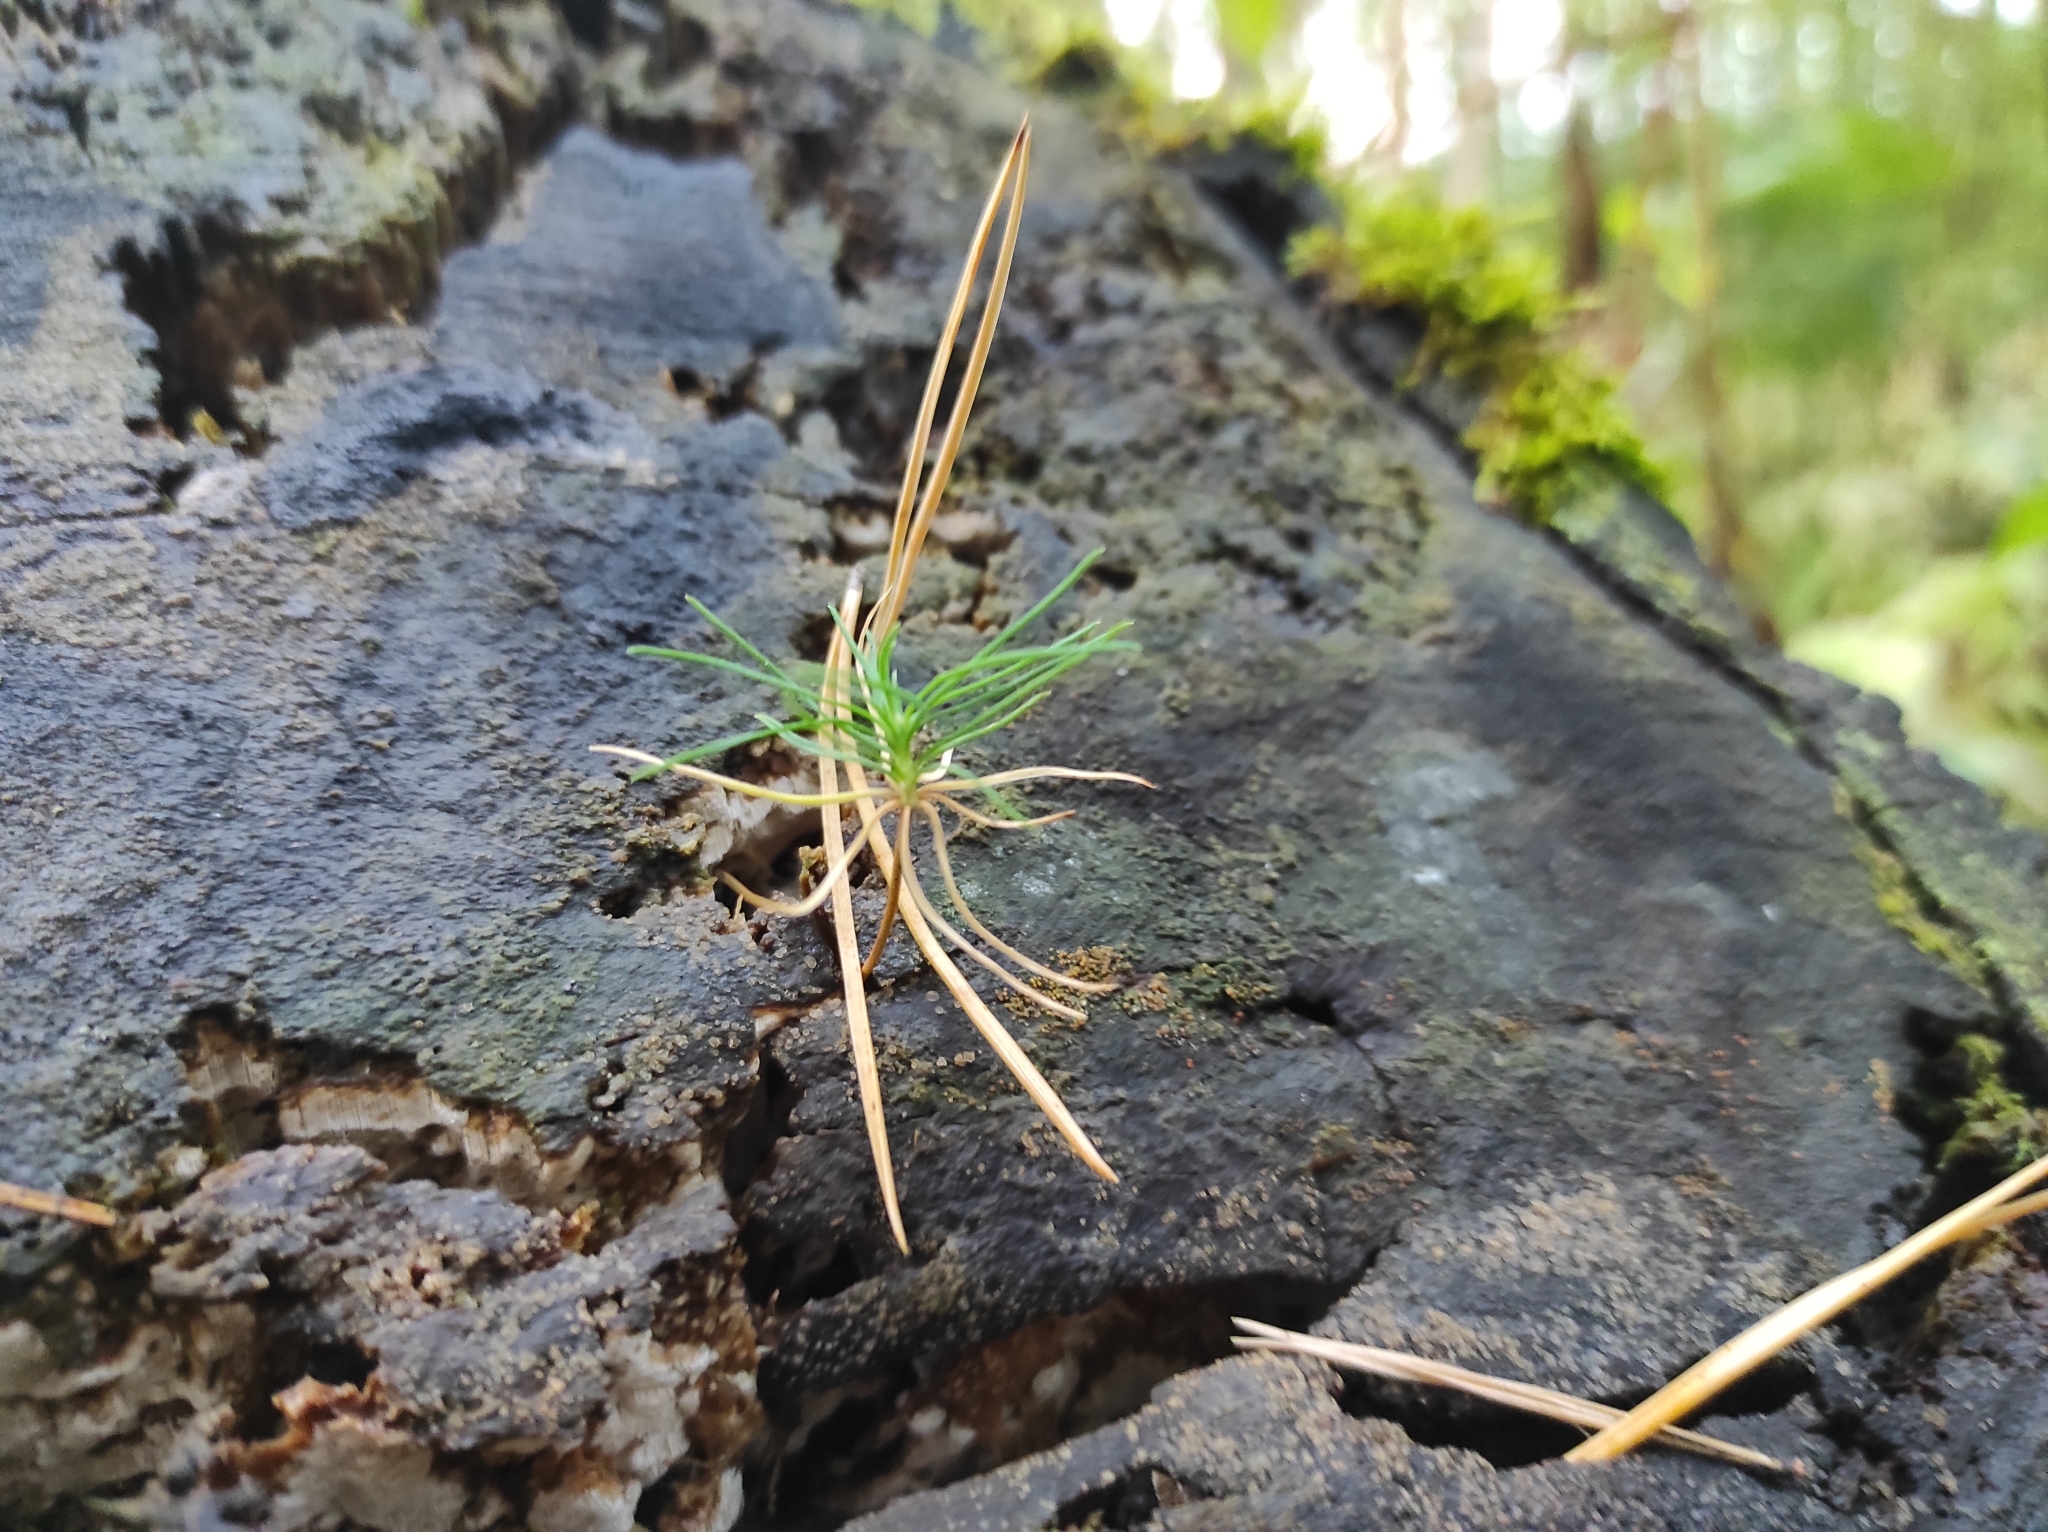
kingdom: Plantae
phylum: Tracheophyta
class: Pinopsida
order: Pinales
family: Pinaceae
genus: Pinus
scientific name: Pinus sylvestris
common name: Scots pine
